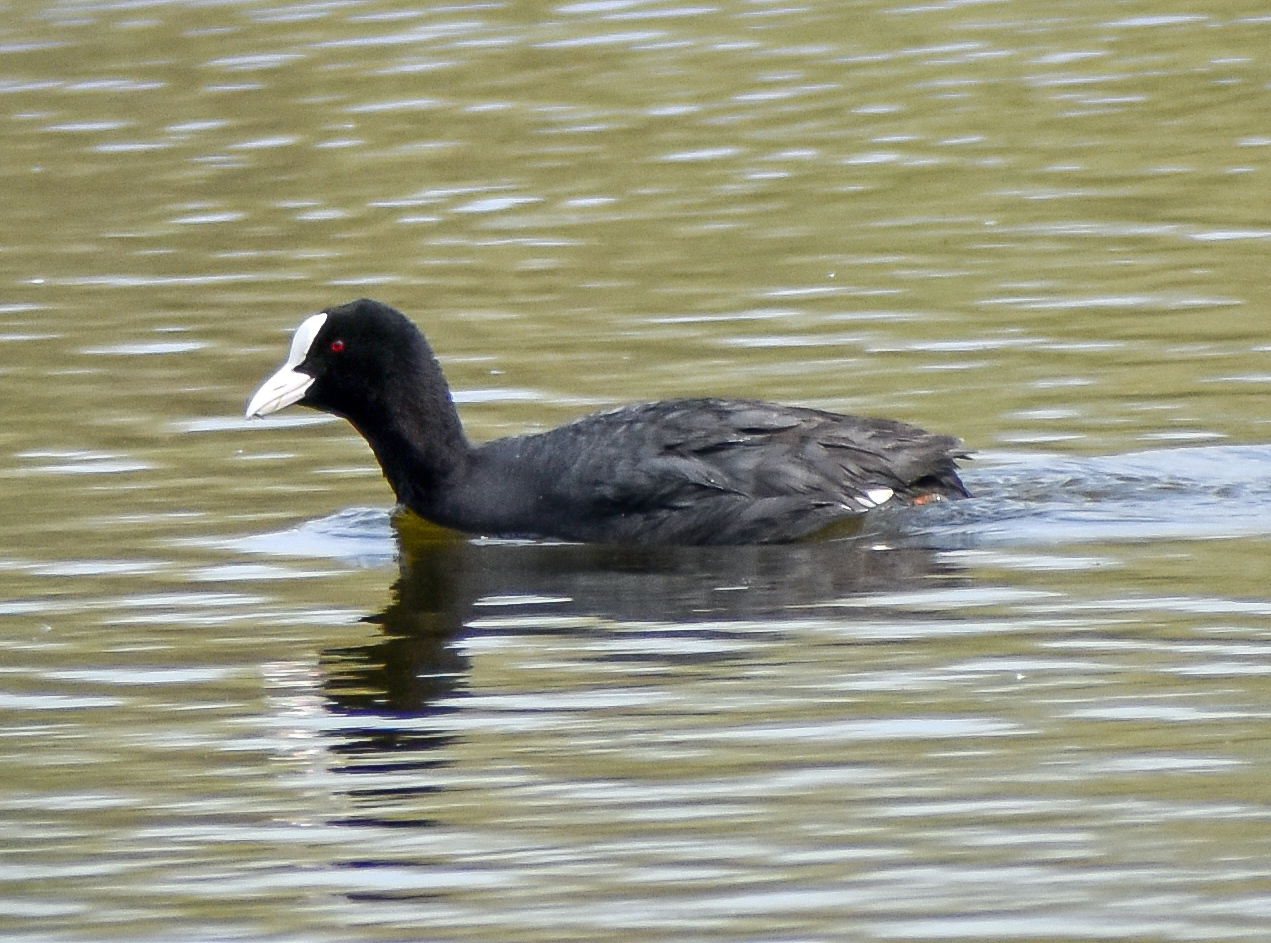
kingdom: Animalia
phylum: Chordata
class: Aves
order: Gruiformes
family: Rallidae
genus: Fulica
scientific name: Fulica atra
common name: Eurasian coot
